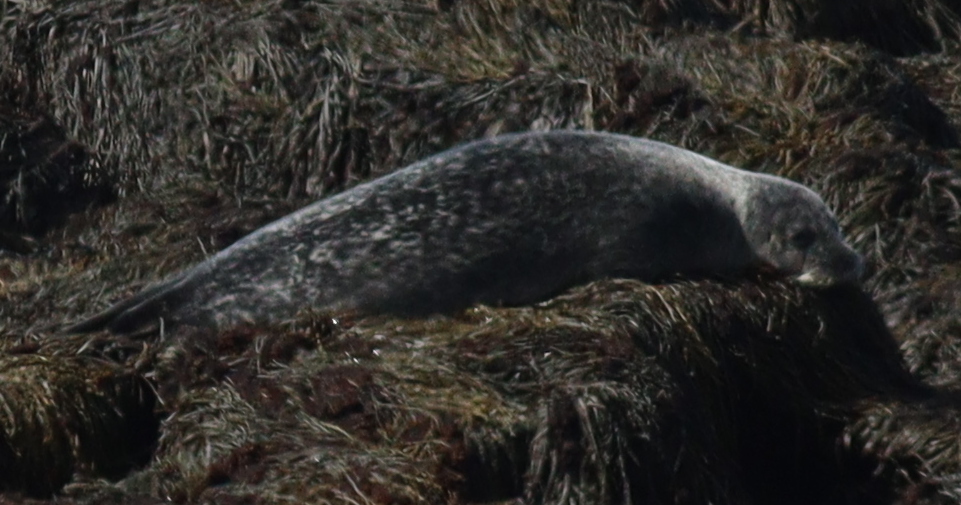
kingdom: Animalia
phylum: Chordata
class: Mammalia
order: Carnivora
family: Phocidae
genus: Phoca
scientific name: Phoca vitulina
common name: Harbor seal
